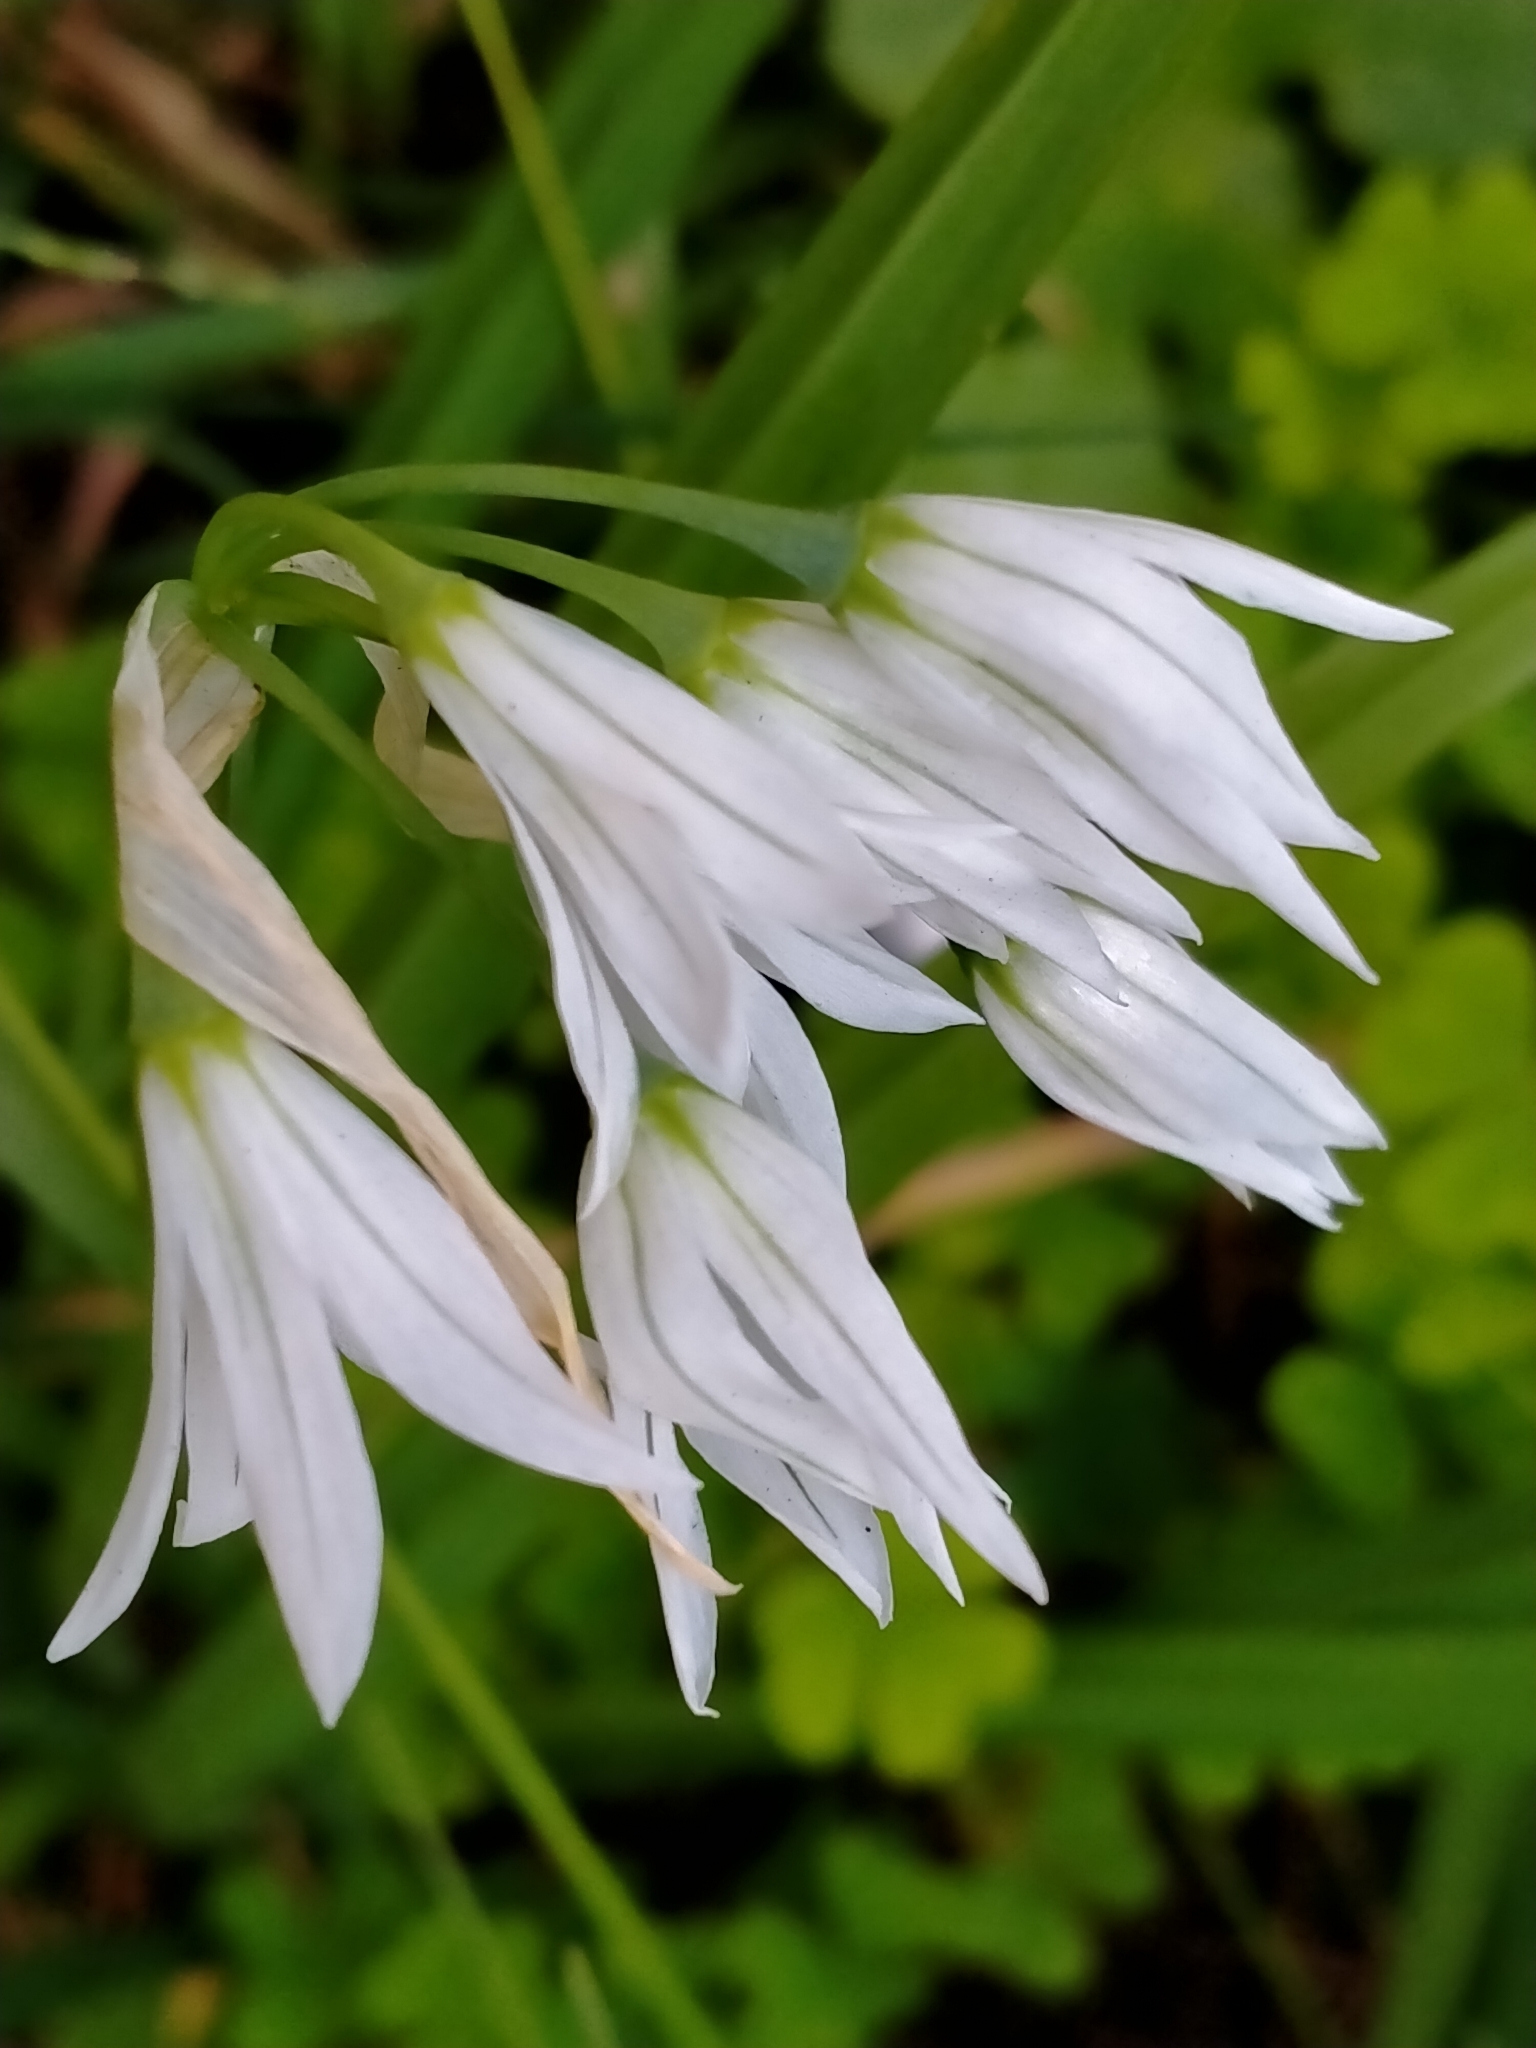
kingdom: Plantae
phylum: Tracheophyta
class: Liliopsida
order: Asparagales
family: Amaryllidaceae
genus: Allium
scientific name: Allium triquetrum
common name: Three-cornered garlic
